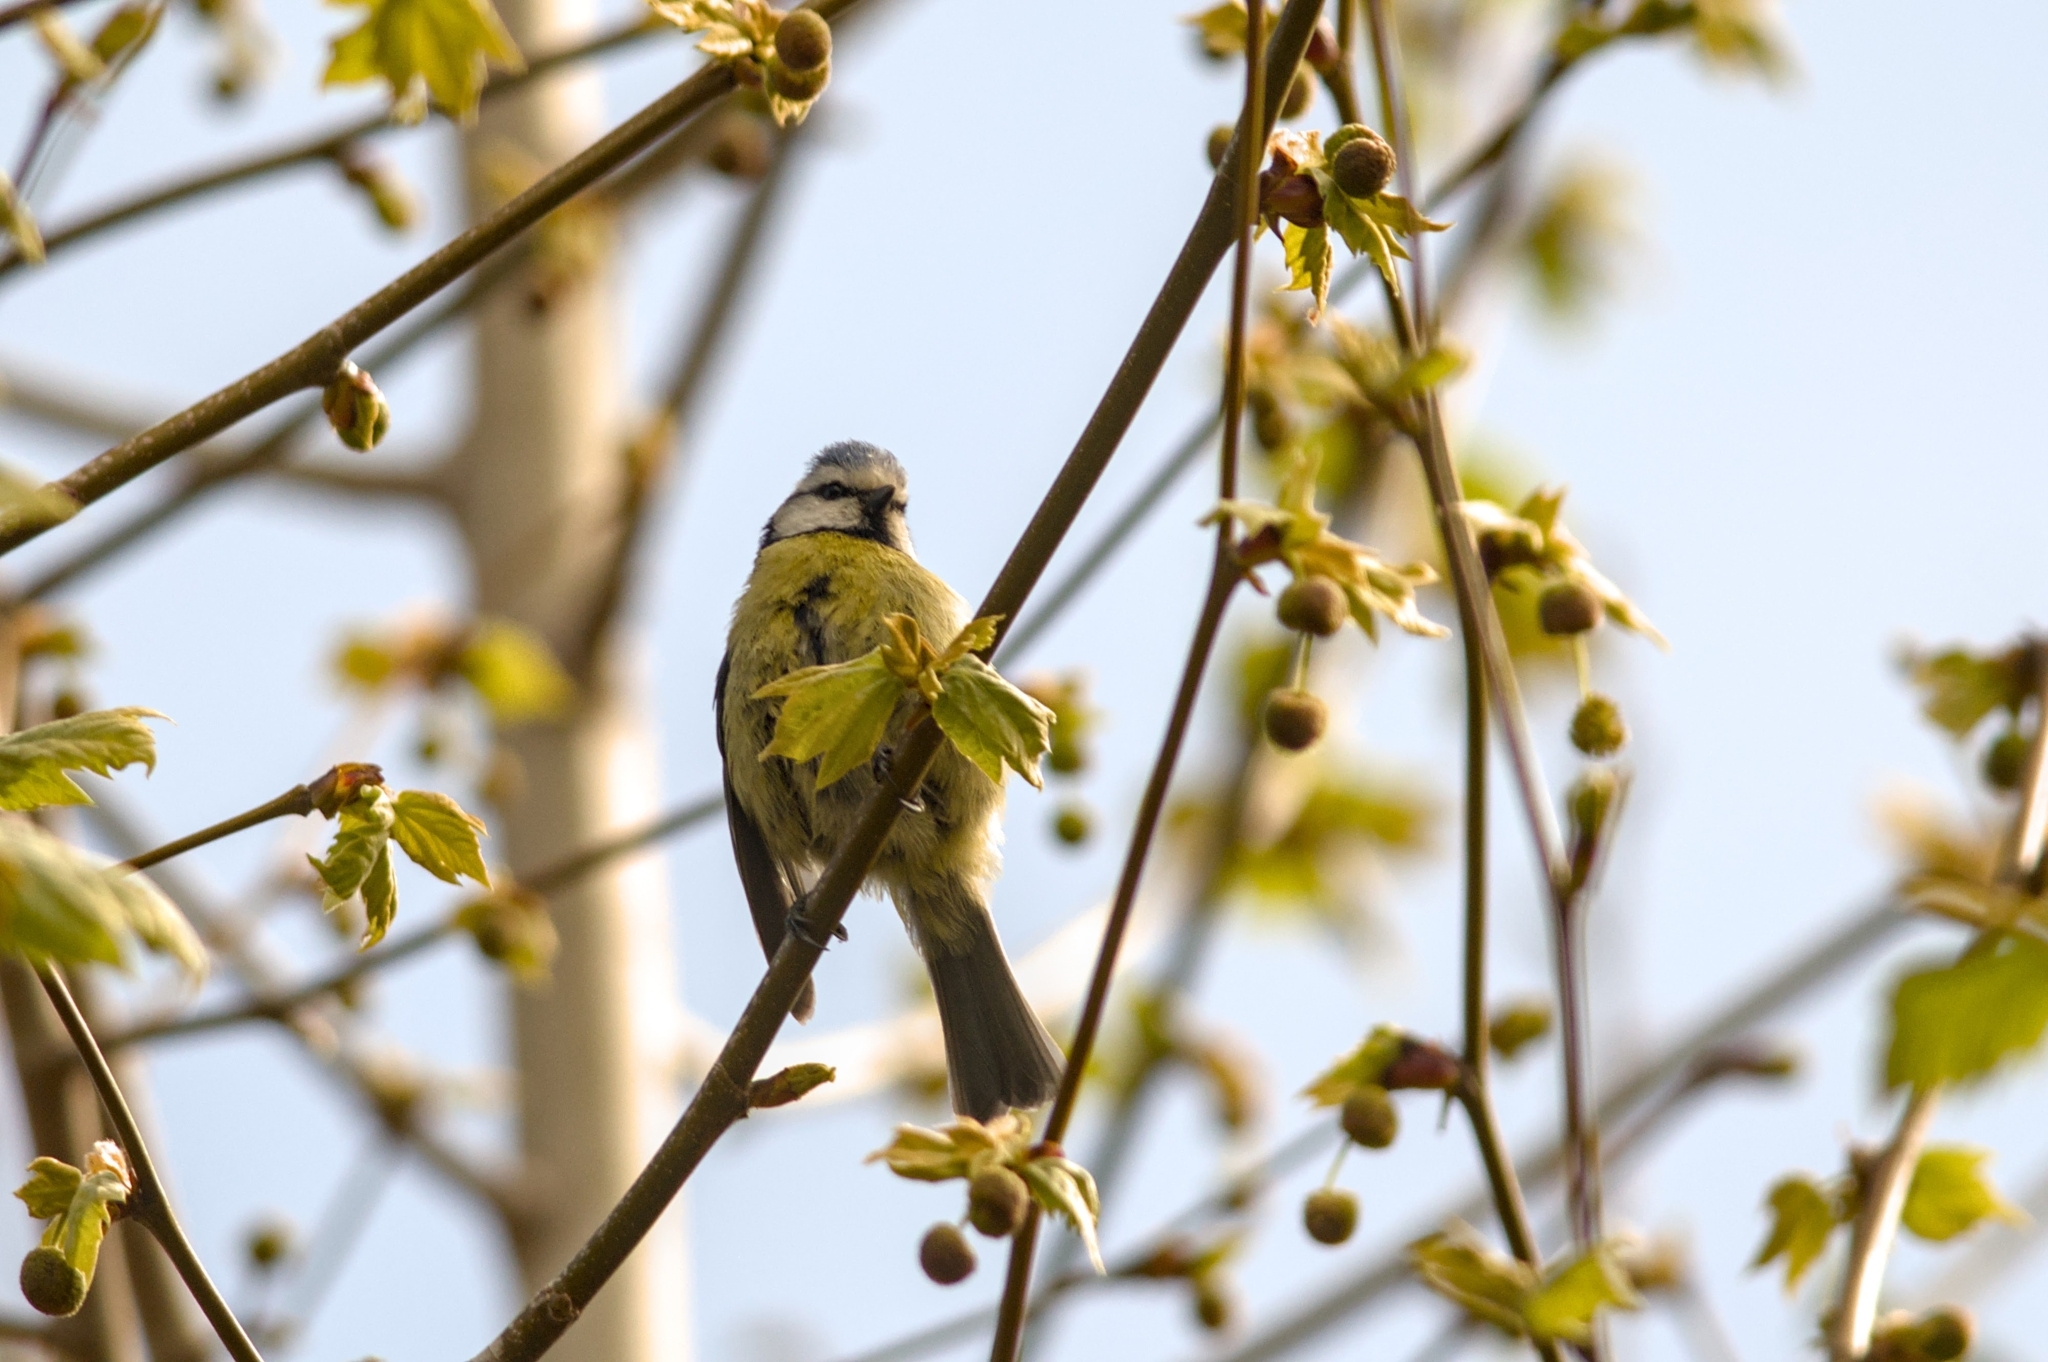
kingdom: Animalia
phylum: Chordata
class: Aves
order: Passeriformes
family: Paridae
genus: Cyanistes
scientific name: Cyanistes caeruleus
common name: Eurasian blue tit
